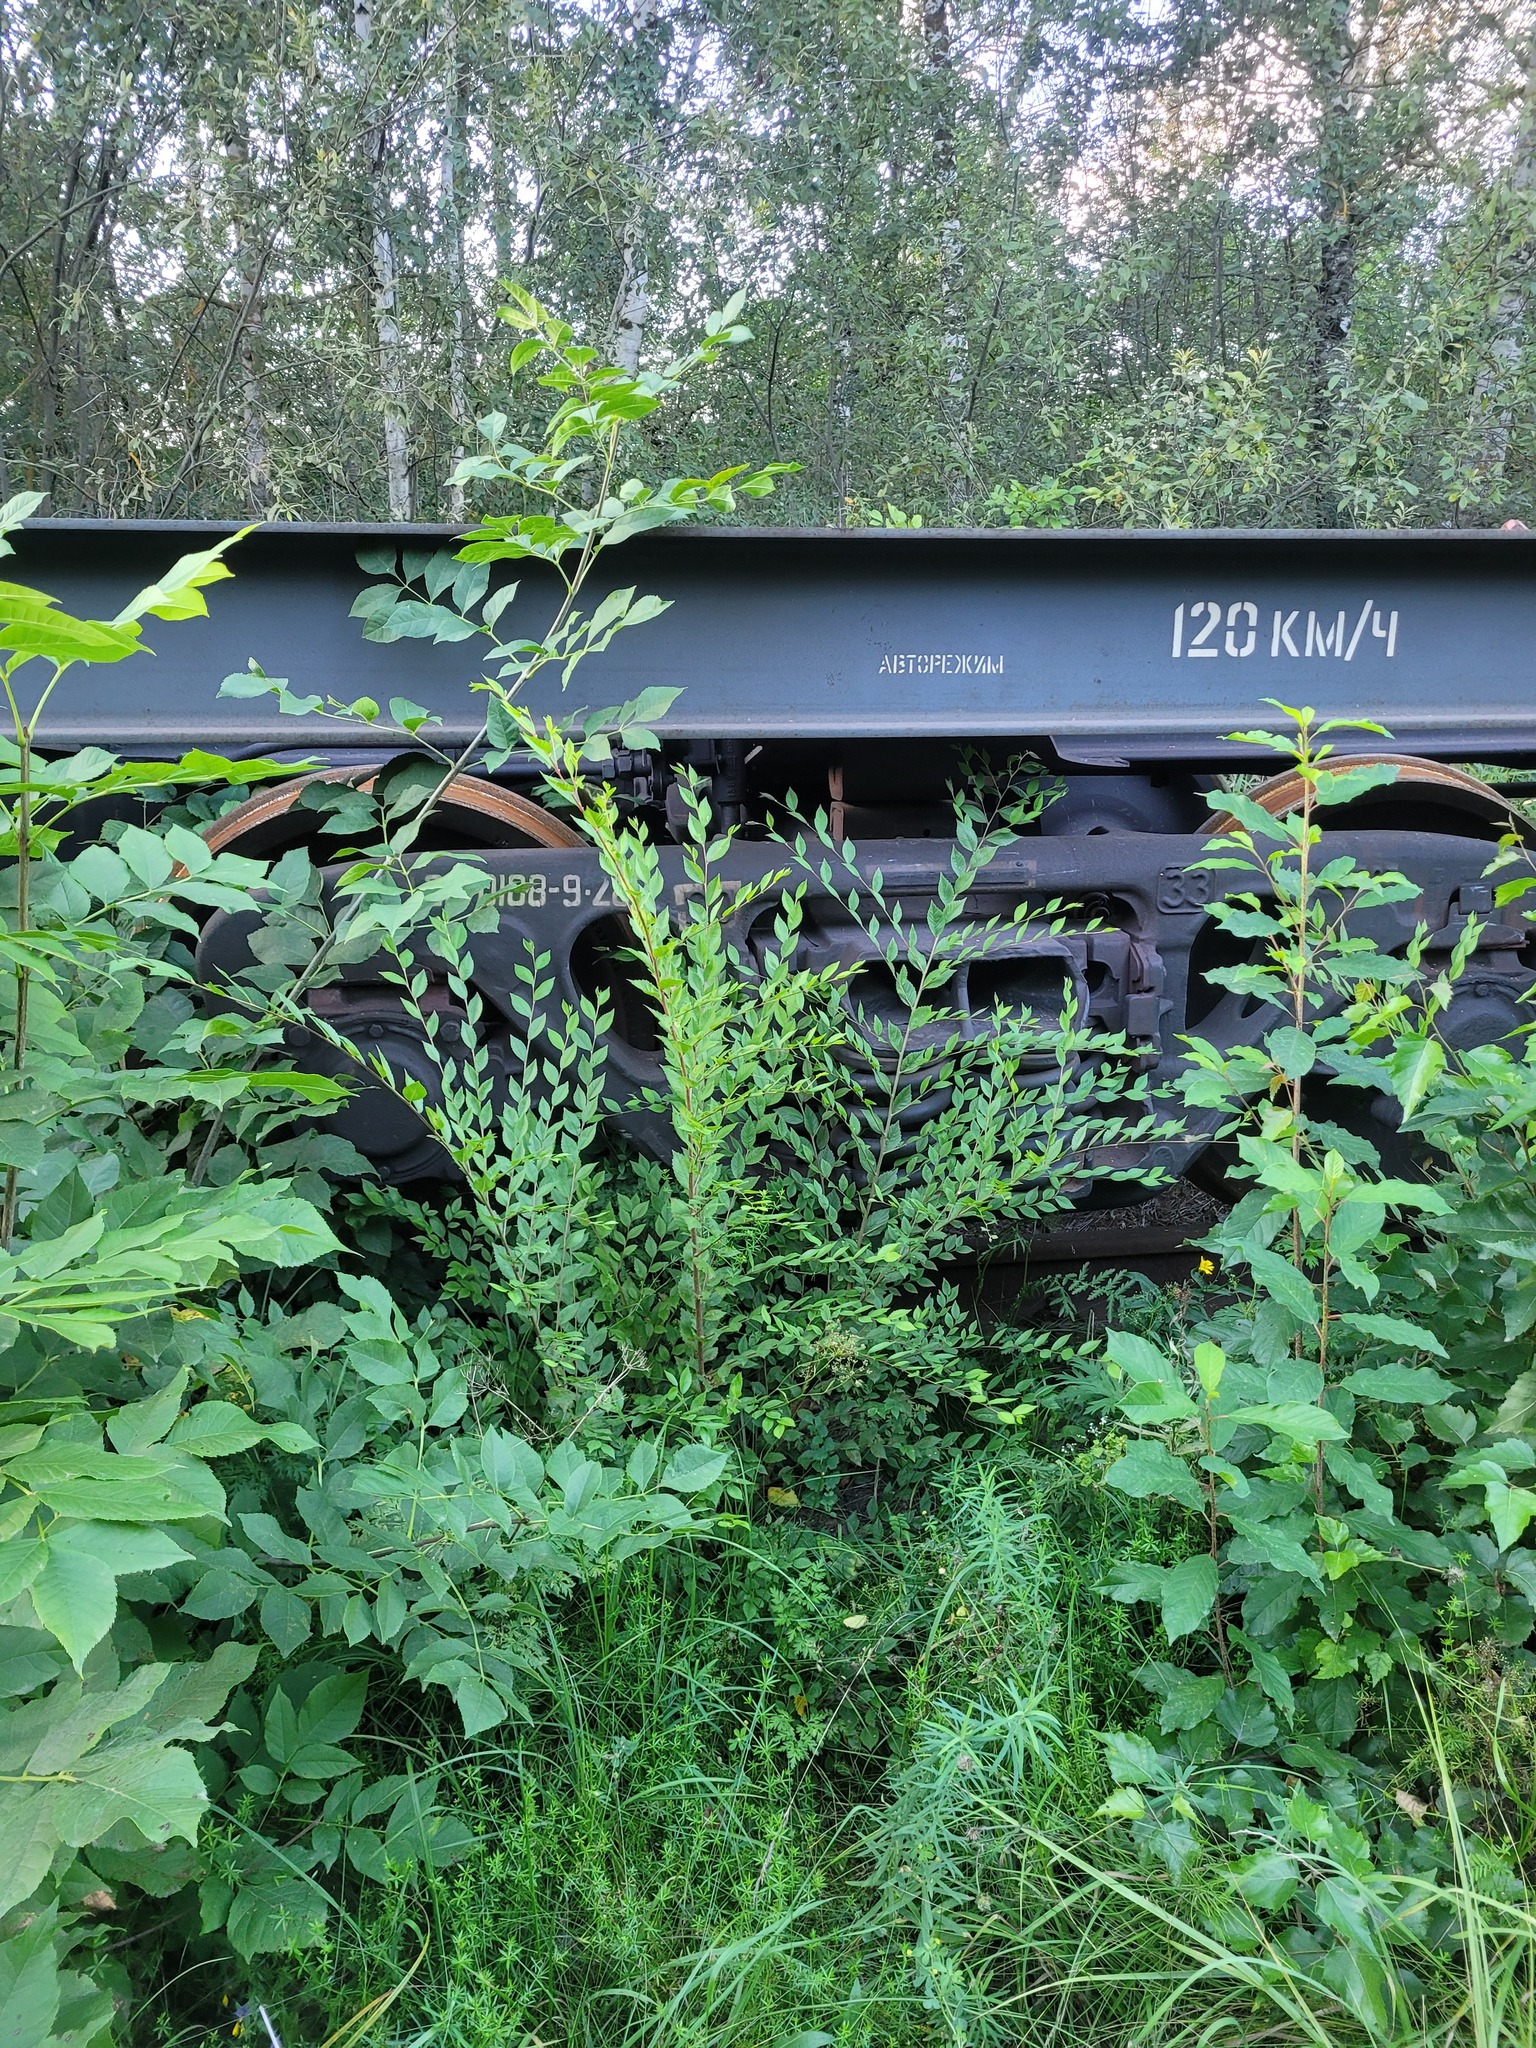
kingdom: Plantae
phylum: Tracheophyta
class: Magnoliopsida
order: Rosales
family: Ulmaceae
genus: Ulmus
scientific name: Ulmus pumila
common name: Siberian elm
